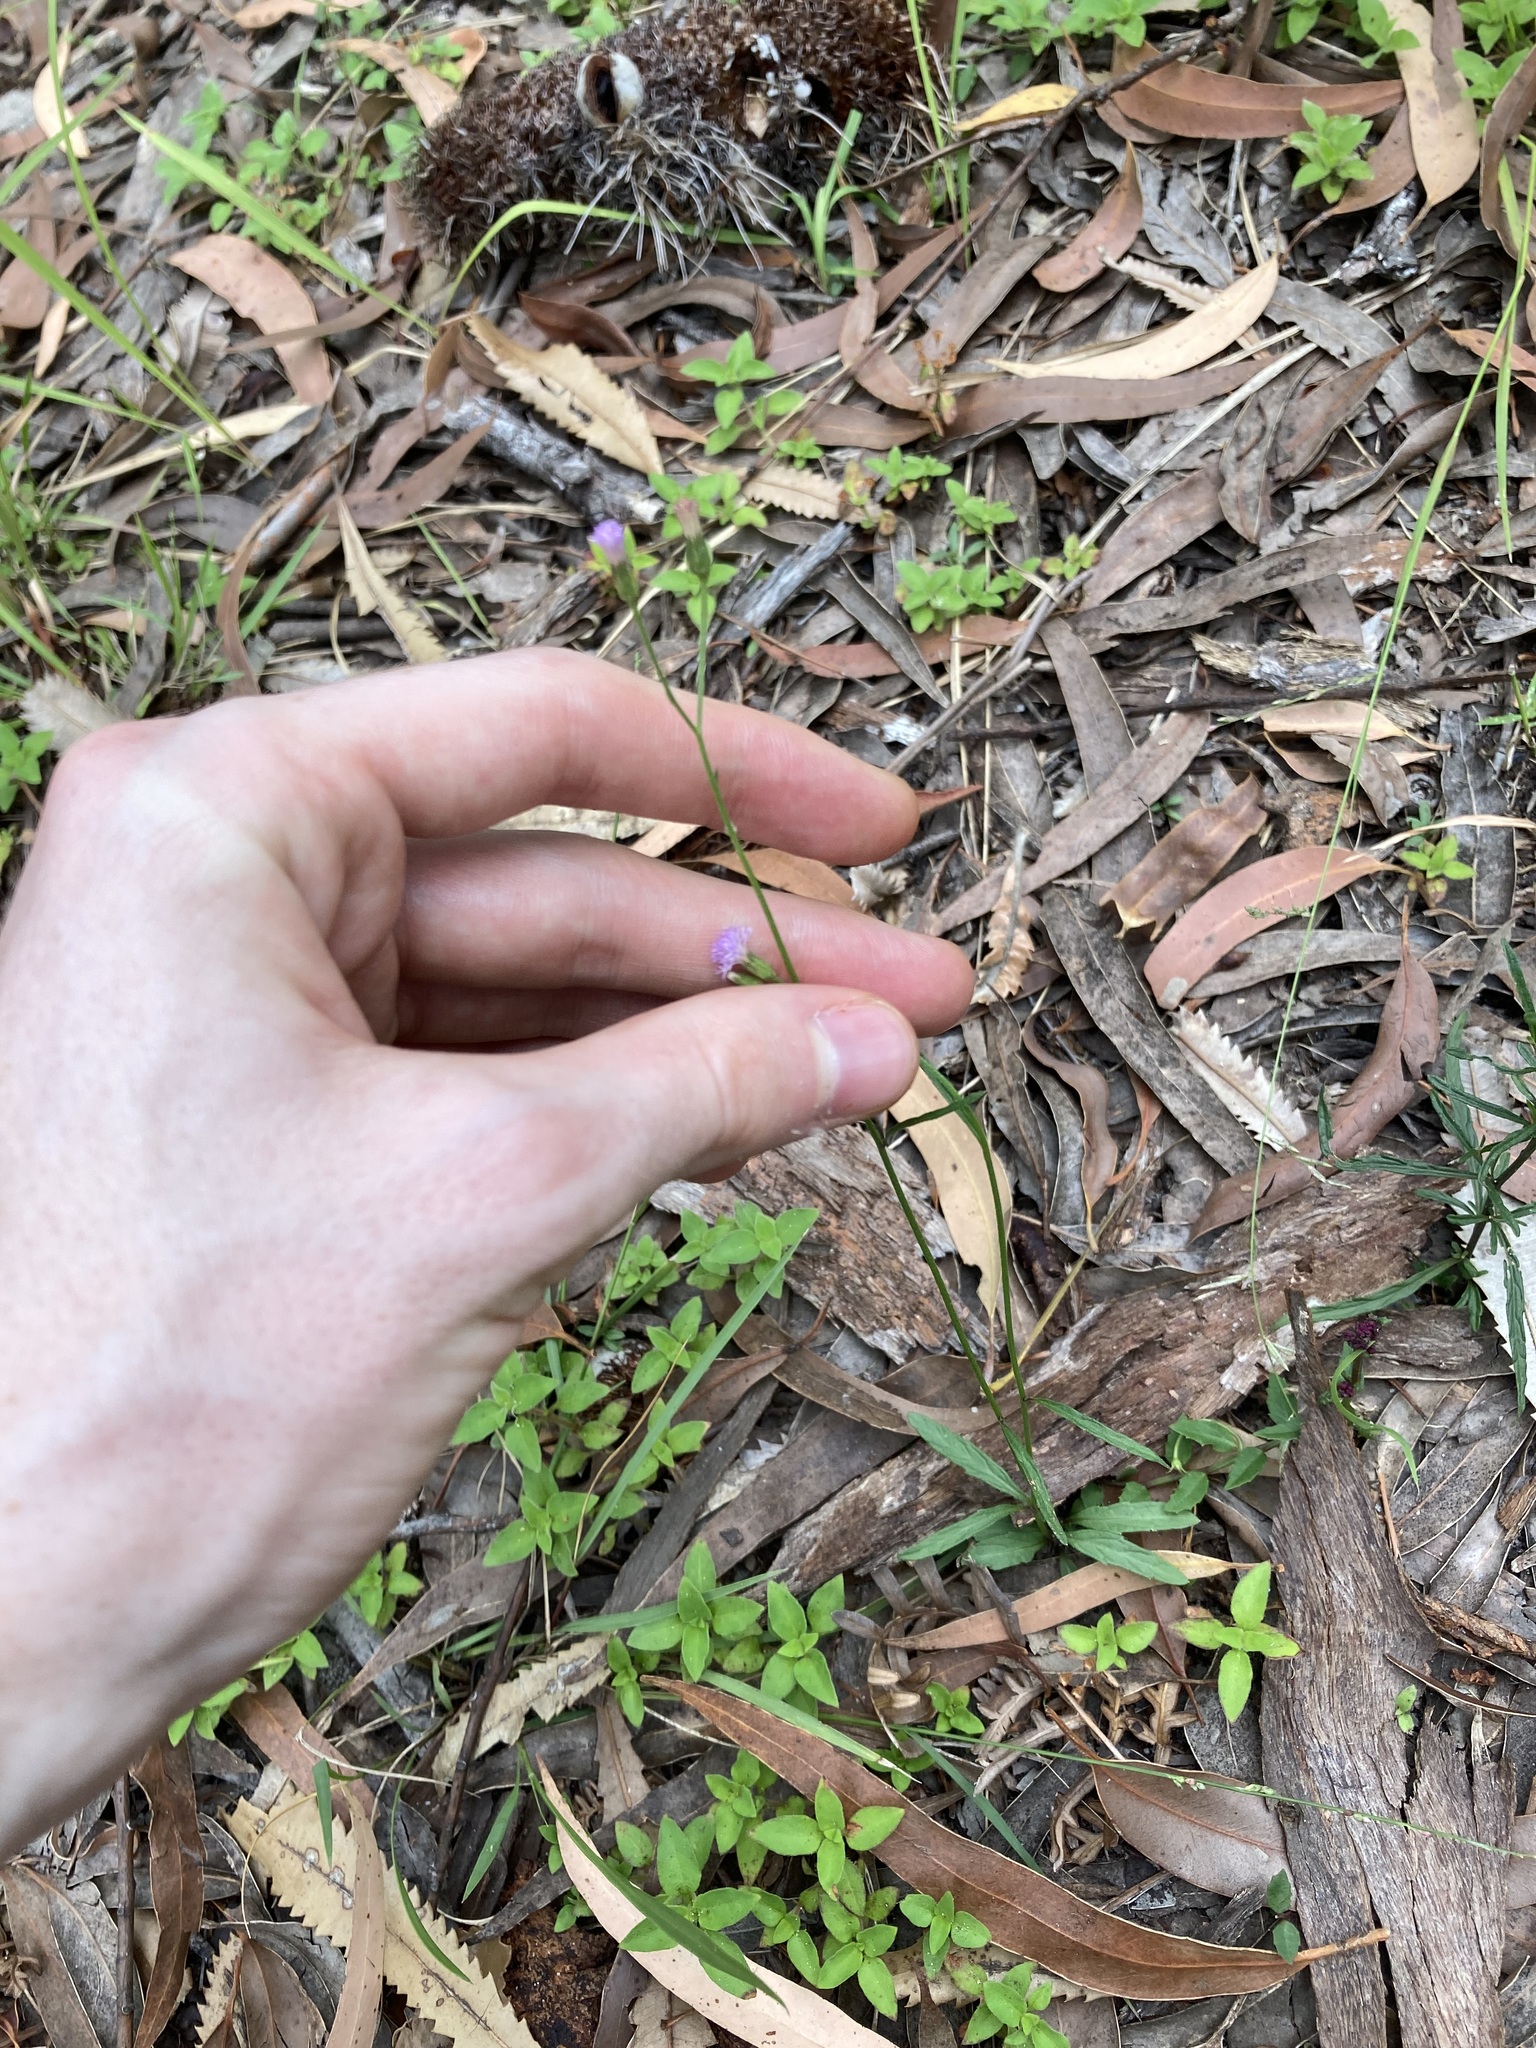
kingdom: Plantae
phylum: Tracheophyta
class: Magnoliopsida
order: Asterales
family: Asteraceae
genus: Cyanthillium
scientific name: Cyanthillium cinereum
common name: Little ironweed
